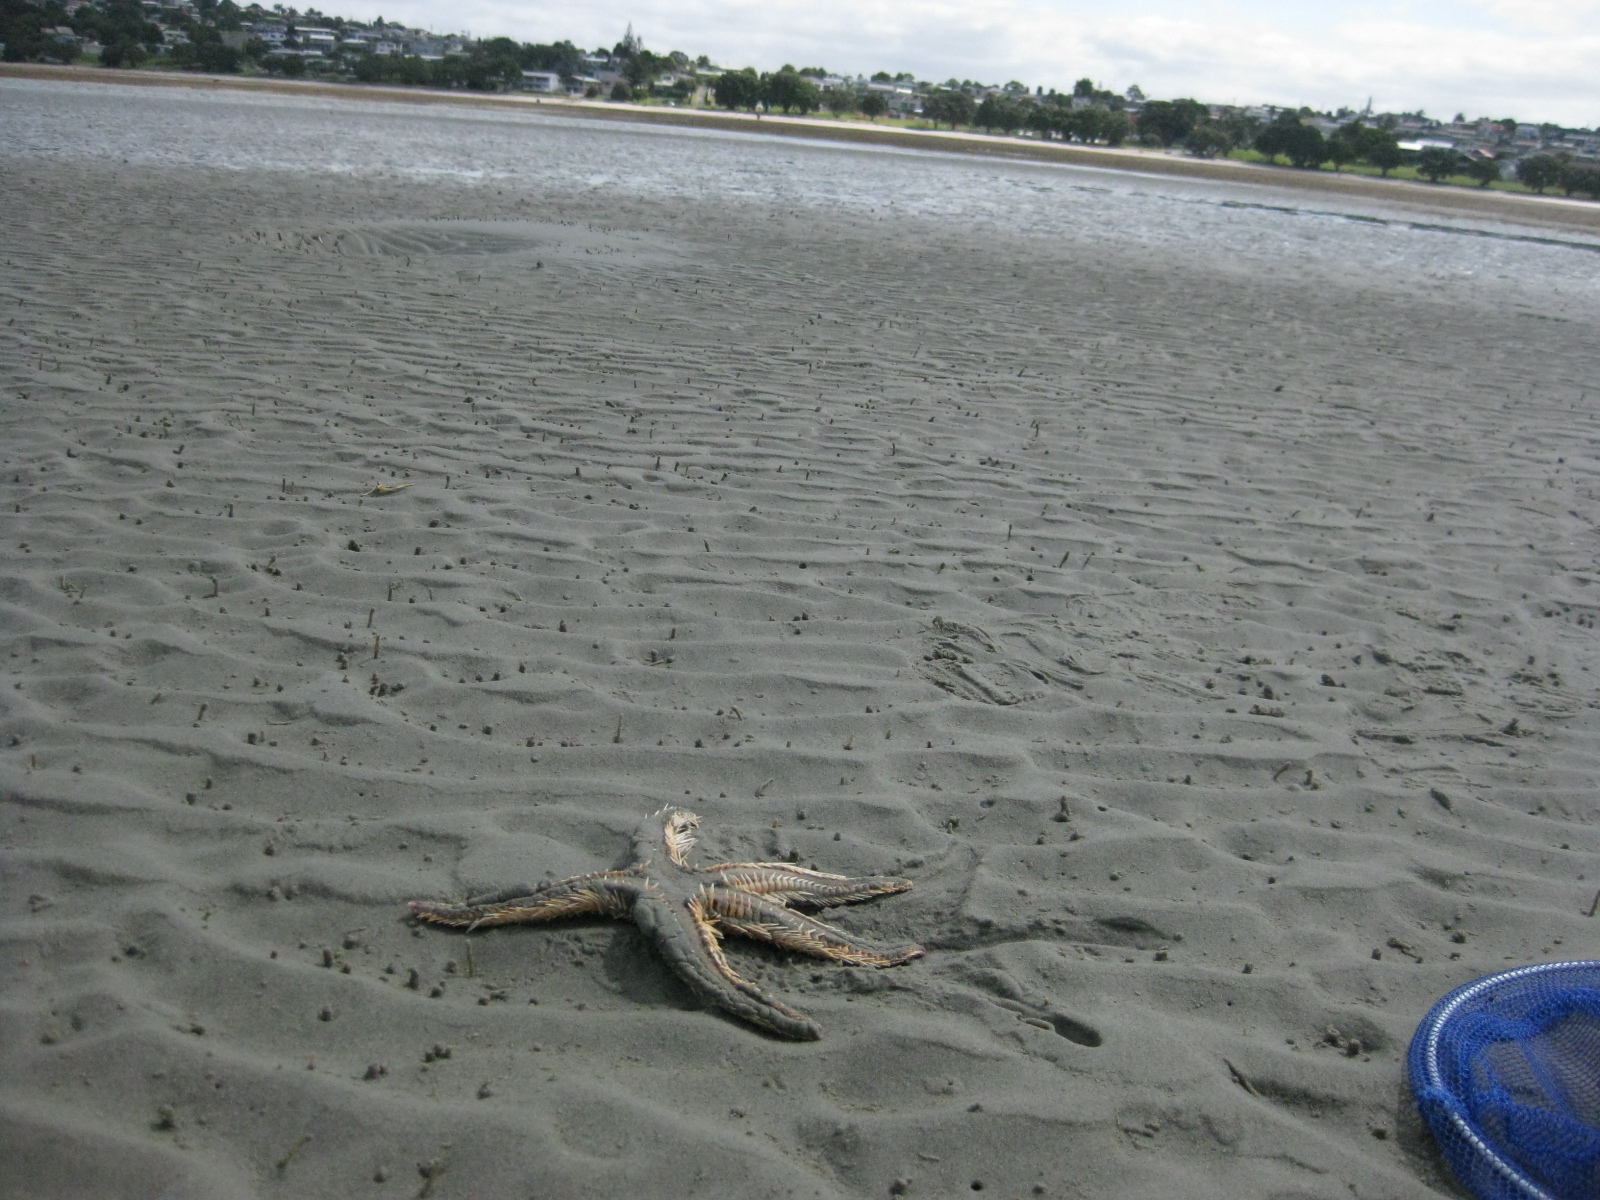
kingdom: Animalia
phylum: Echinodermata
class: Asteroidea
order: Paxillosida
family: Astropectinidae
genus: Astropecten
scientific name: Astropecten polyacanthus
